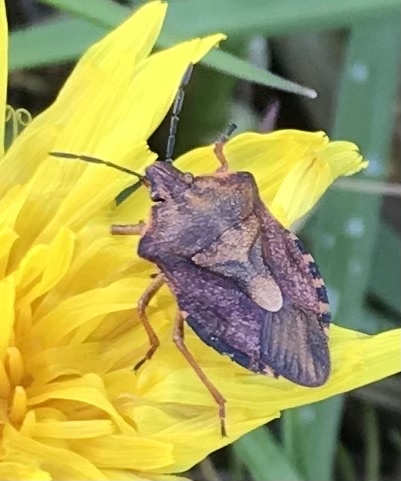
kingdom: Animalia
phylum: Arthropoda
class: Insecta
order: Hemiptera
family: Pentatomidae
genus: Carpocoris
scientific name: Carpocoris purpureipennis
